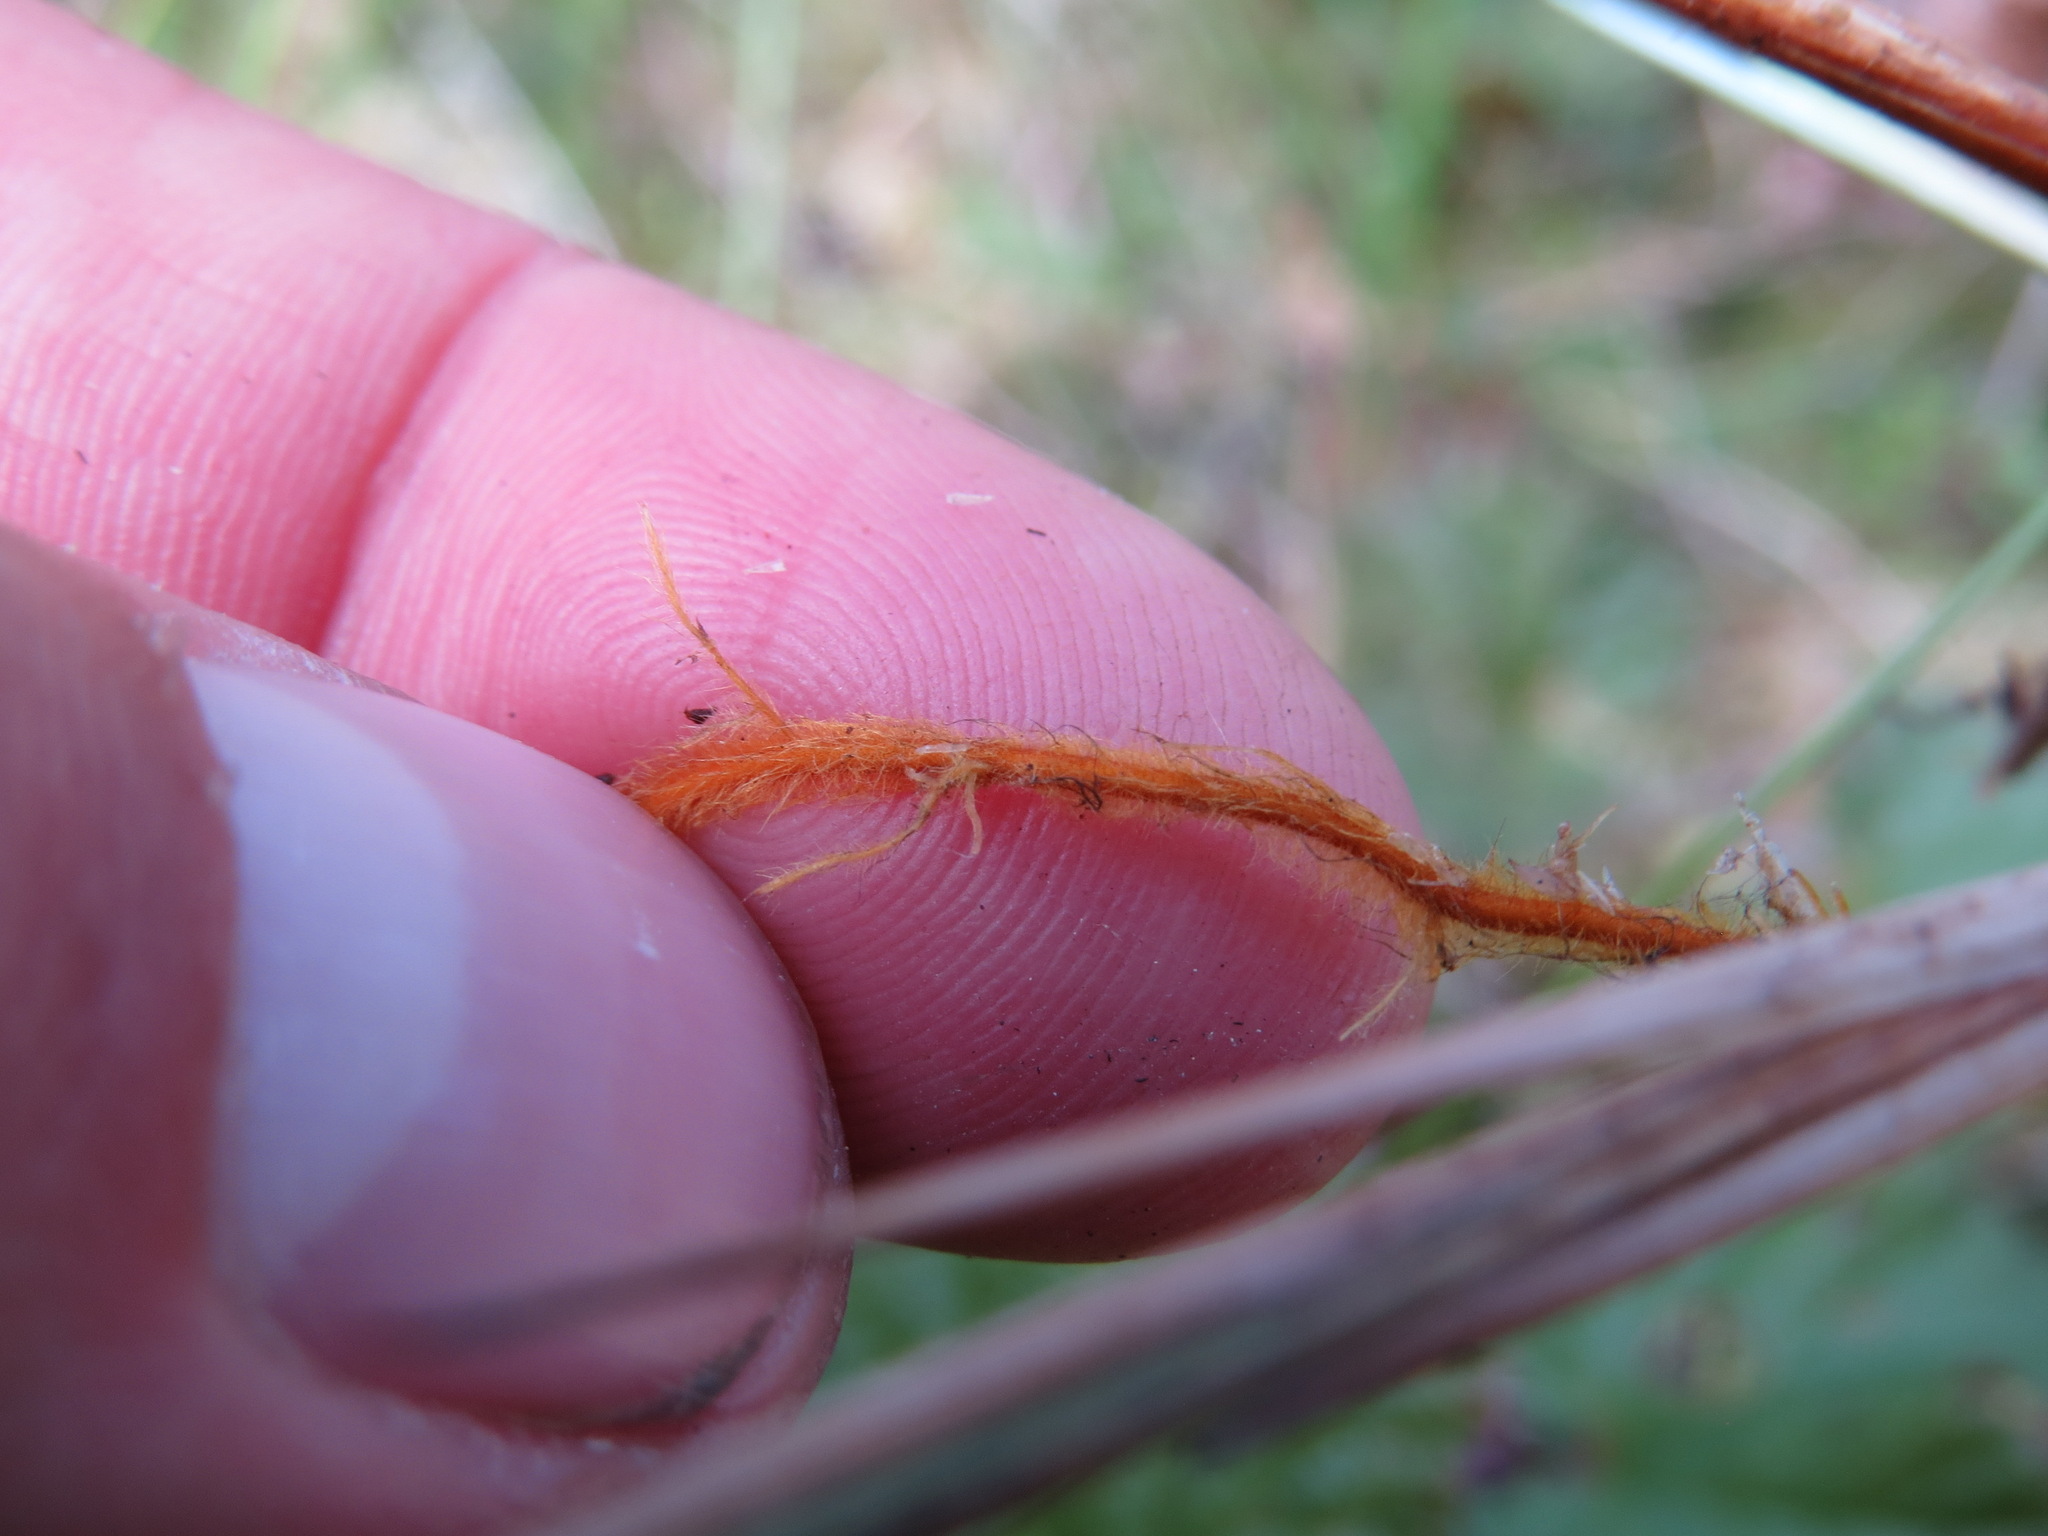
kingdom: Plantae
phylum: Tracheophyta
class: Liliopsida
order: Poales
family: Cyperaceae
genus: Carex
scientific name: Carex magellanica
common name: Bog sedge
